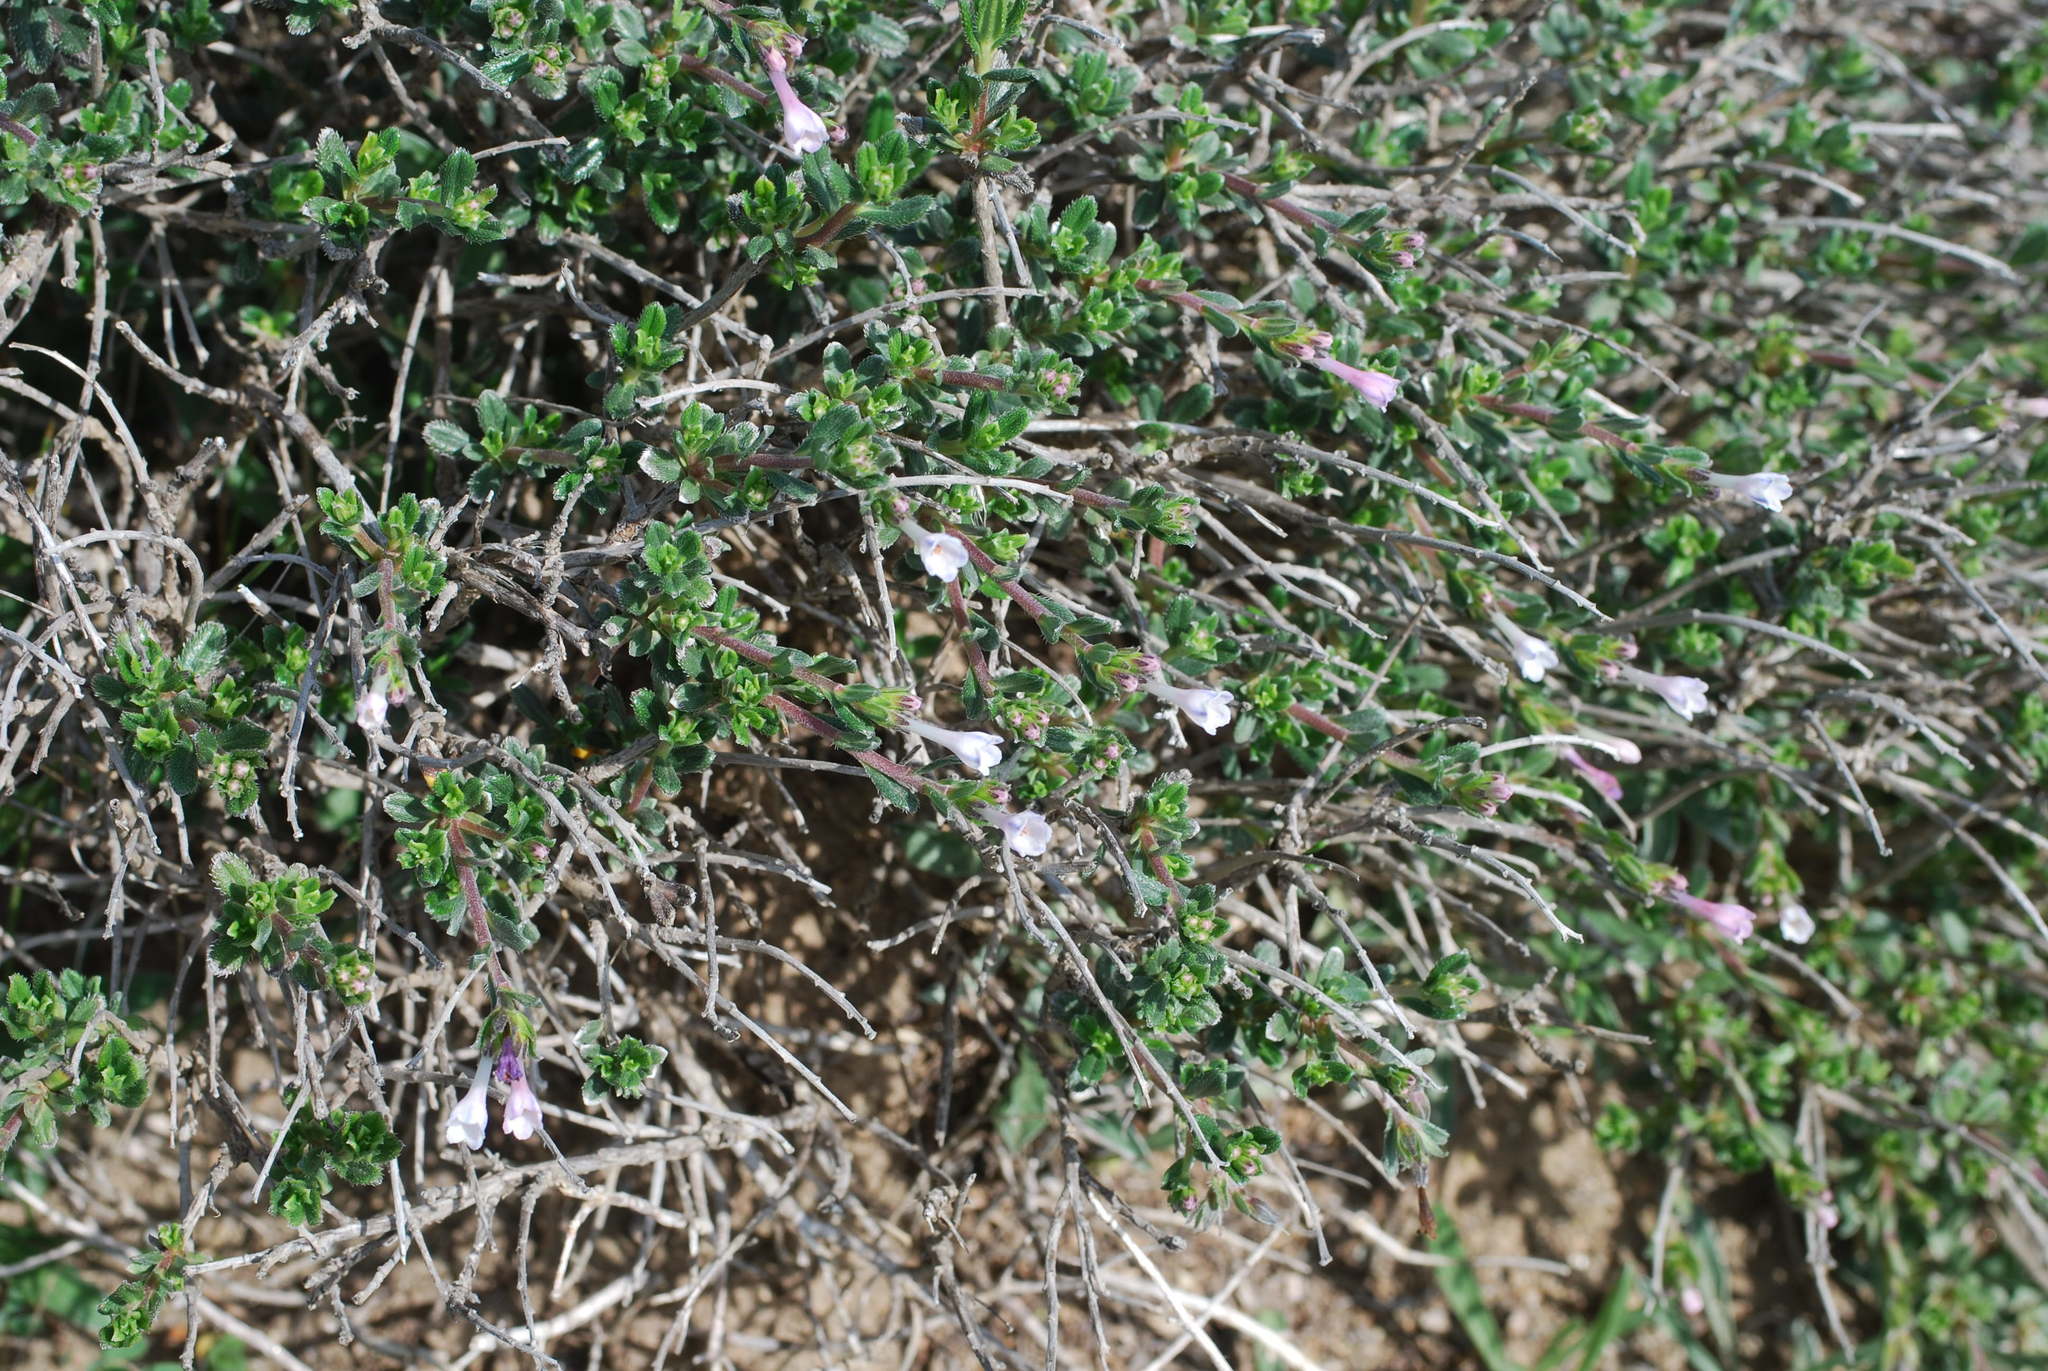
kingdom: Plantae
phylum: Tracheophyta
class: Magnoliopsida
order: Boraginales
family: Boraginaceae
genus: Lithodora
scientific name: Lithodora hispidula
